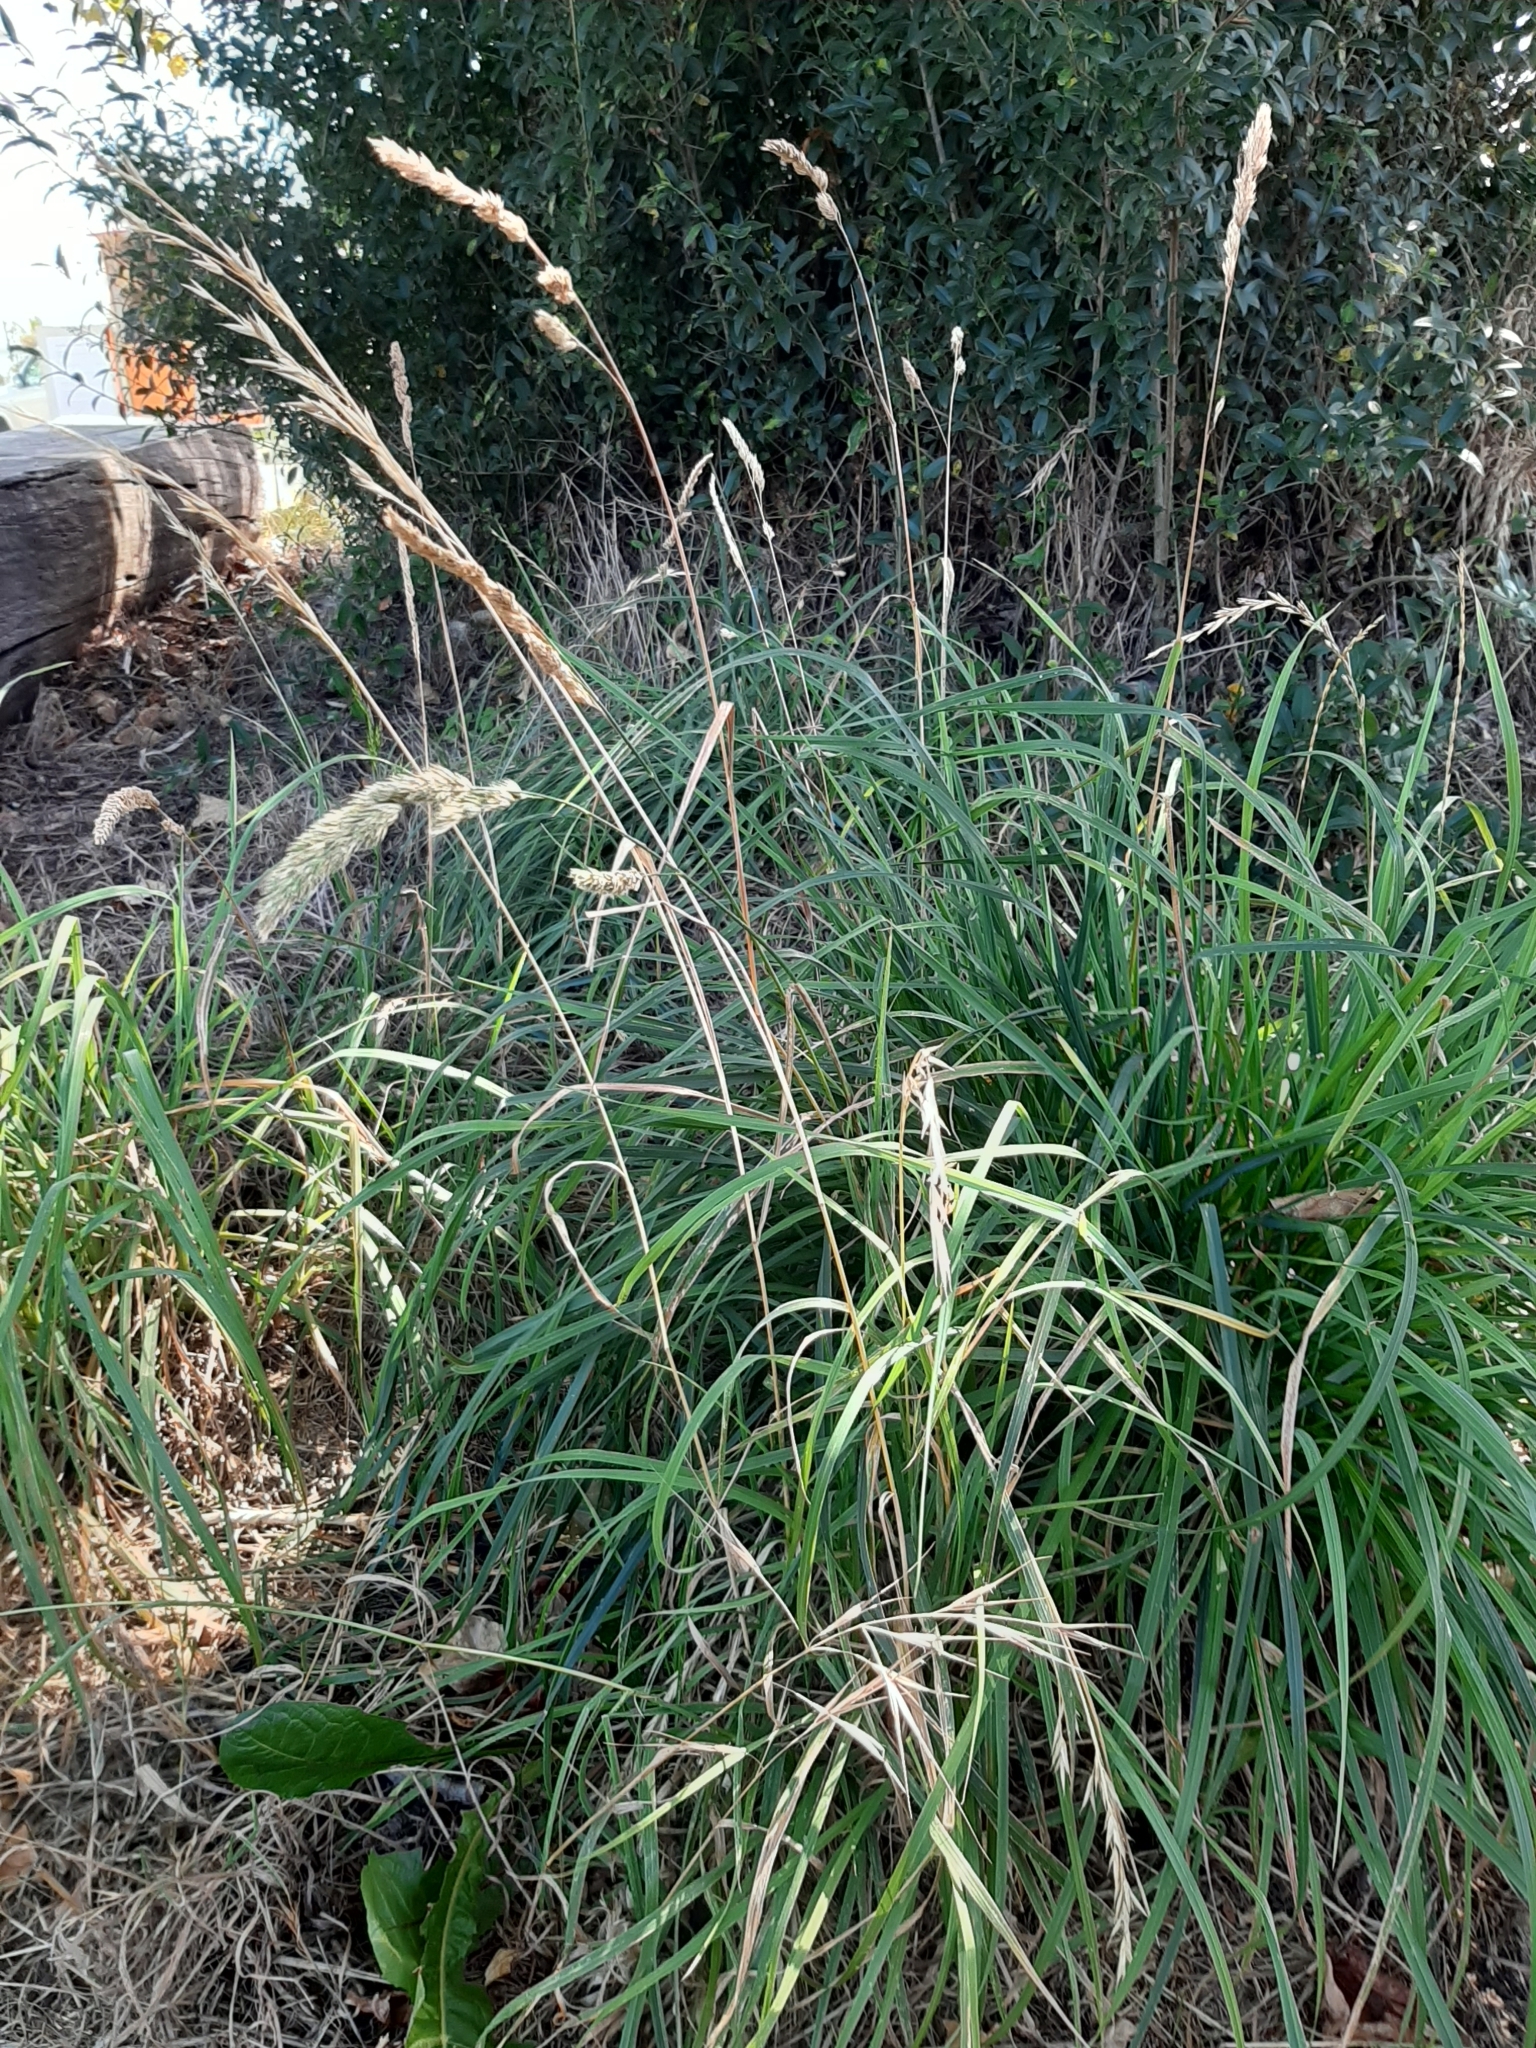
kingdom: Plantae
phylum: Tracheophyta
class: Liliopsida
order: Poales
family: Poaceae
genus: Dactylis
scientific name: Dactylis glomerata
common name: Orchardgrass
